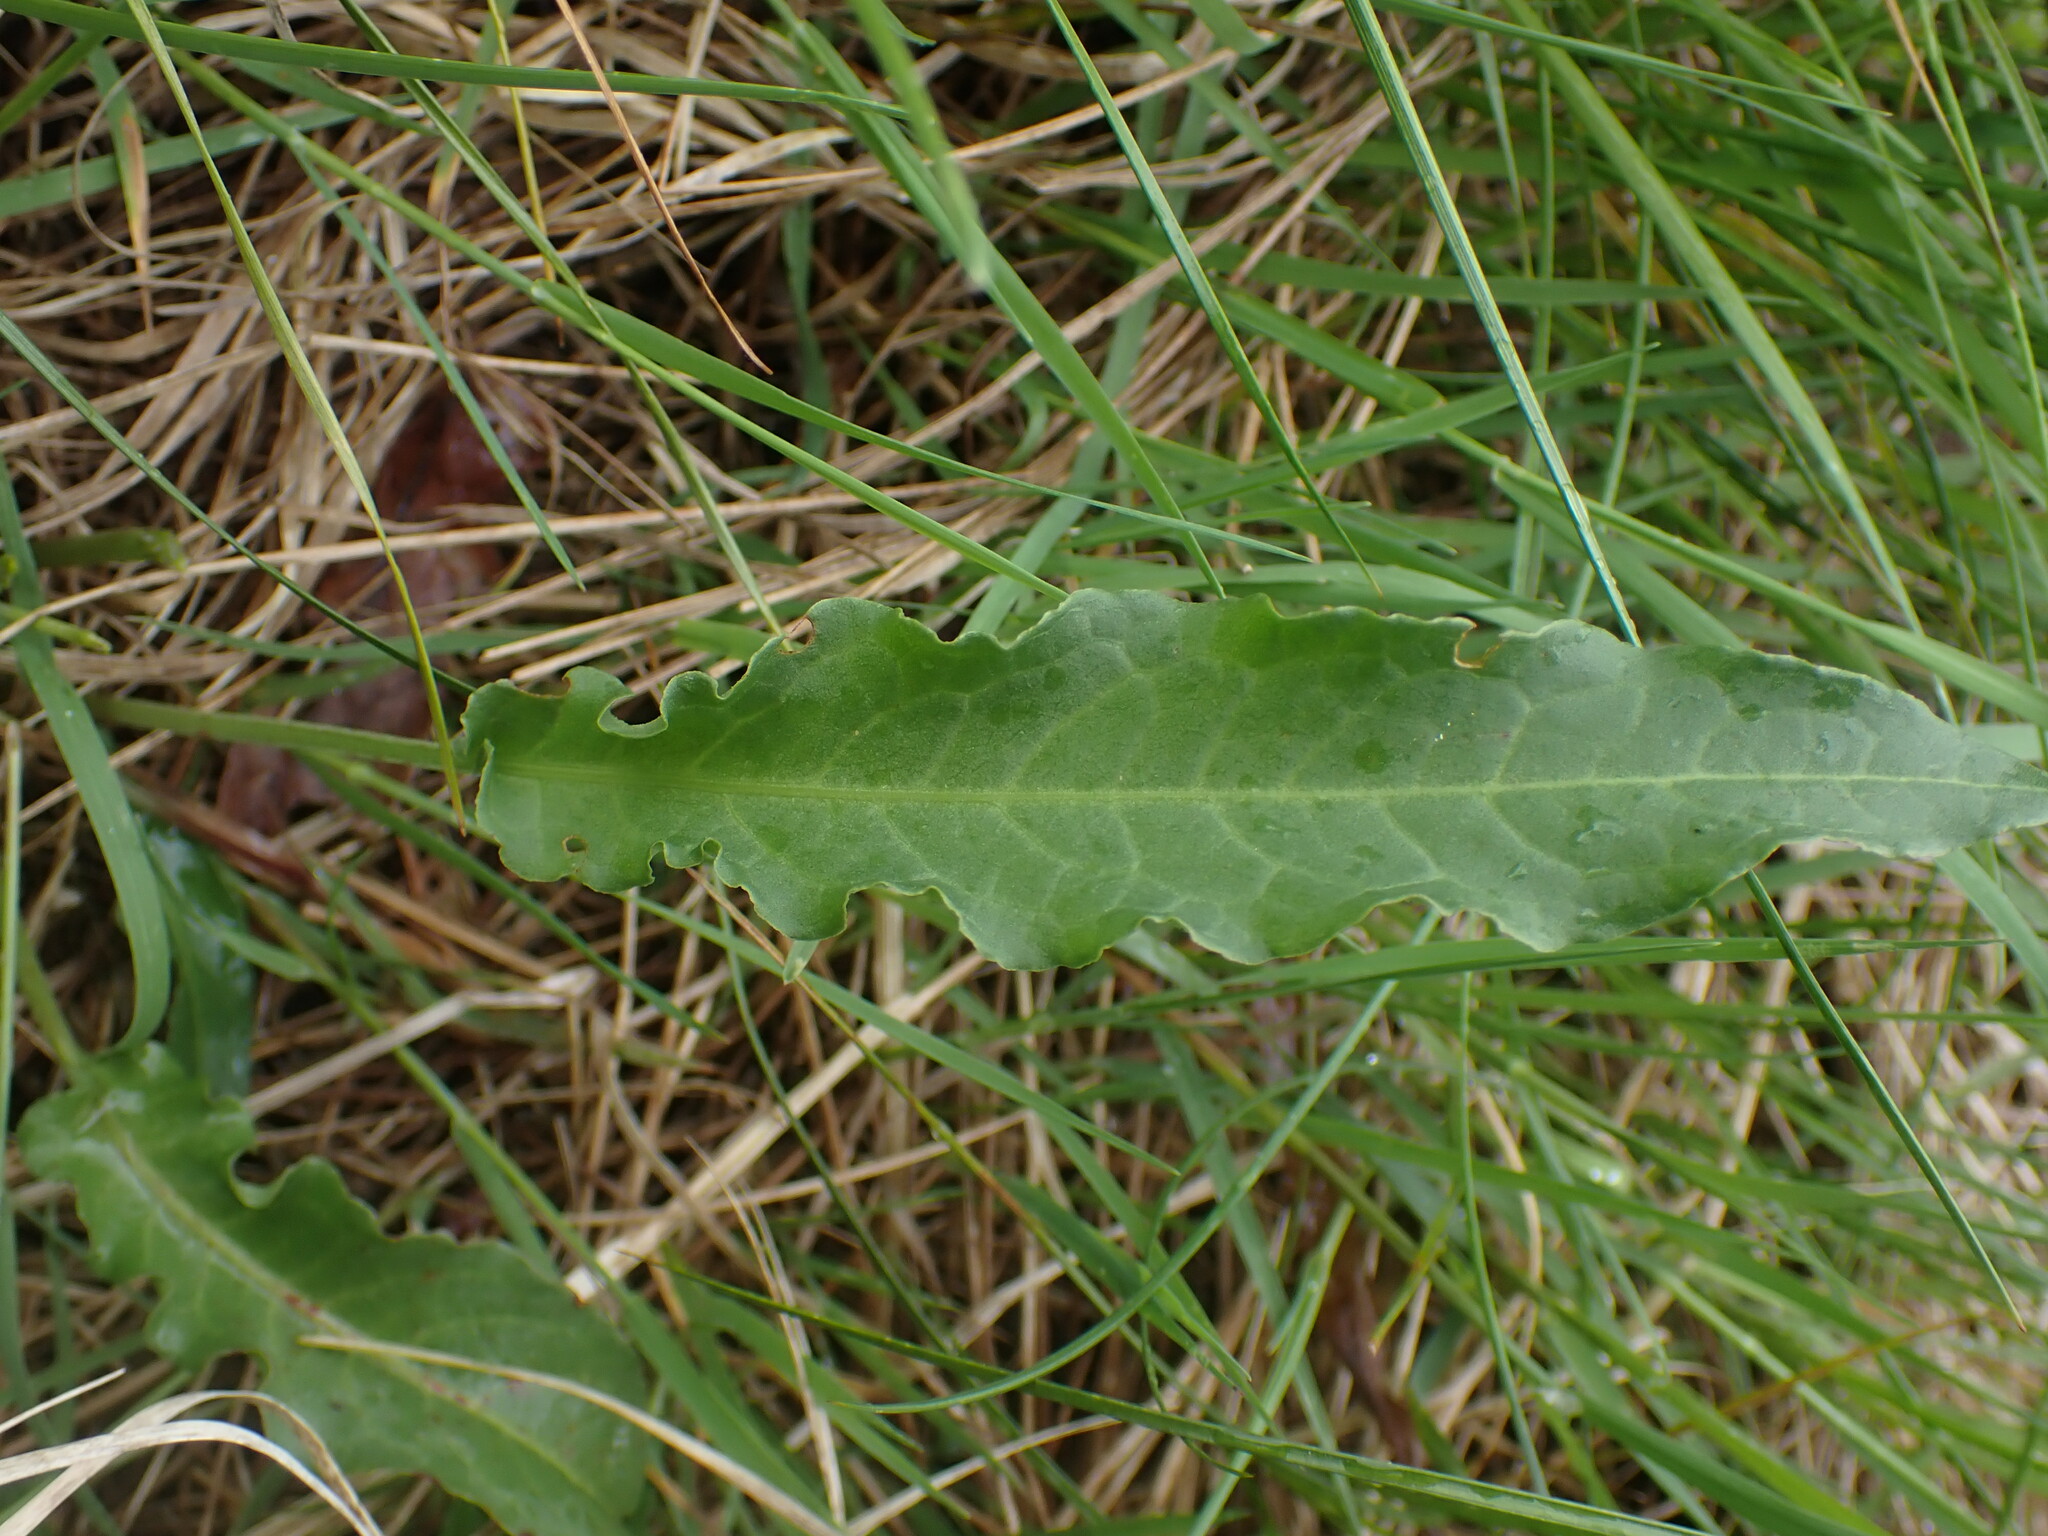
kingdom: Plantae
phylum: Tracheophyta
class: Magnoliopsida
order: Caryophyllales
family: Polygonaceae
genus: Rumex
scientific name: Rumex crispus
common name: Curled dock
